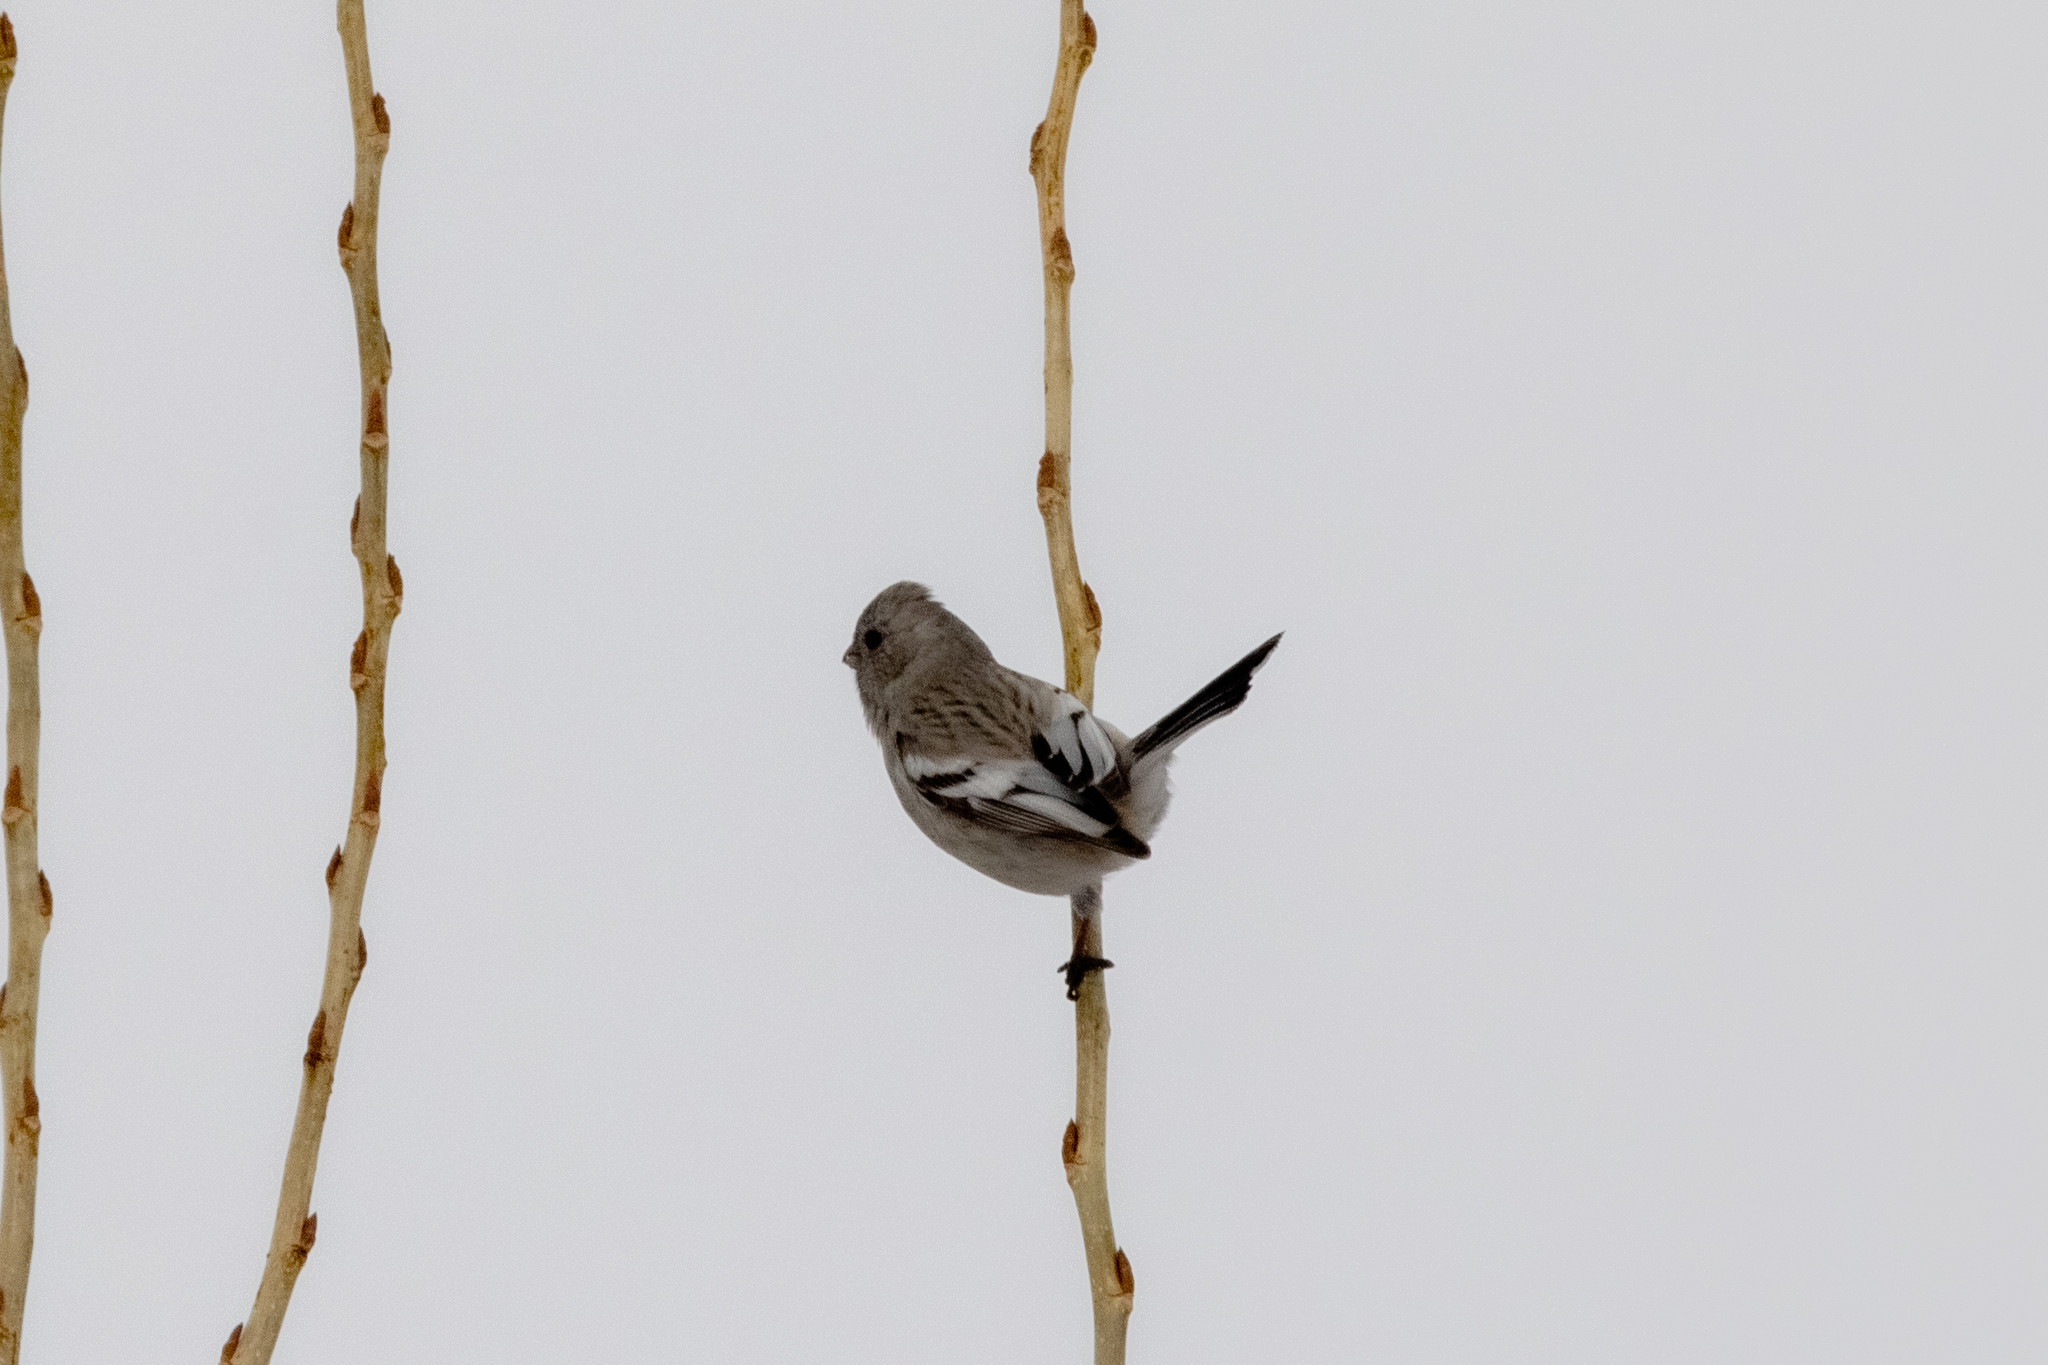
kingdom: Animalia
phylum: Chordata
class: Aves
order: Passeriformes
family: Fringillidae
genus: Carpodacus
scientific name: Carpodacus sibiricus
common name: Long-tailed rosefinch
